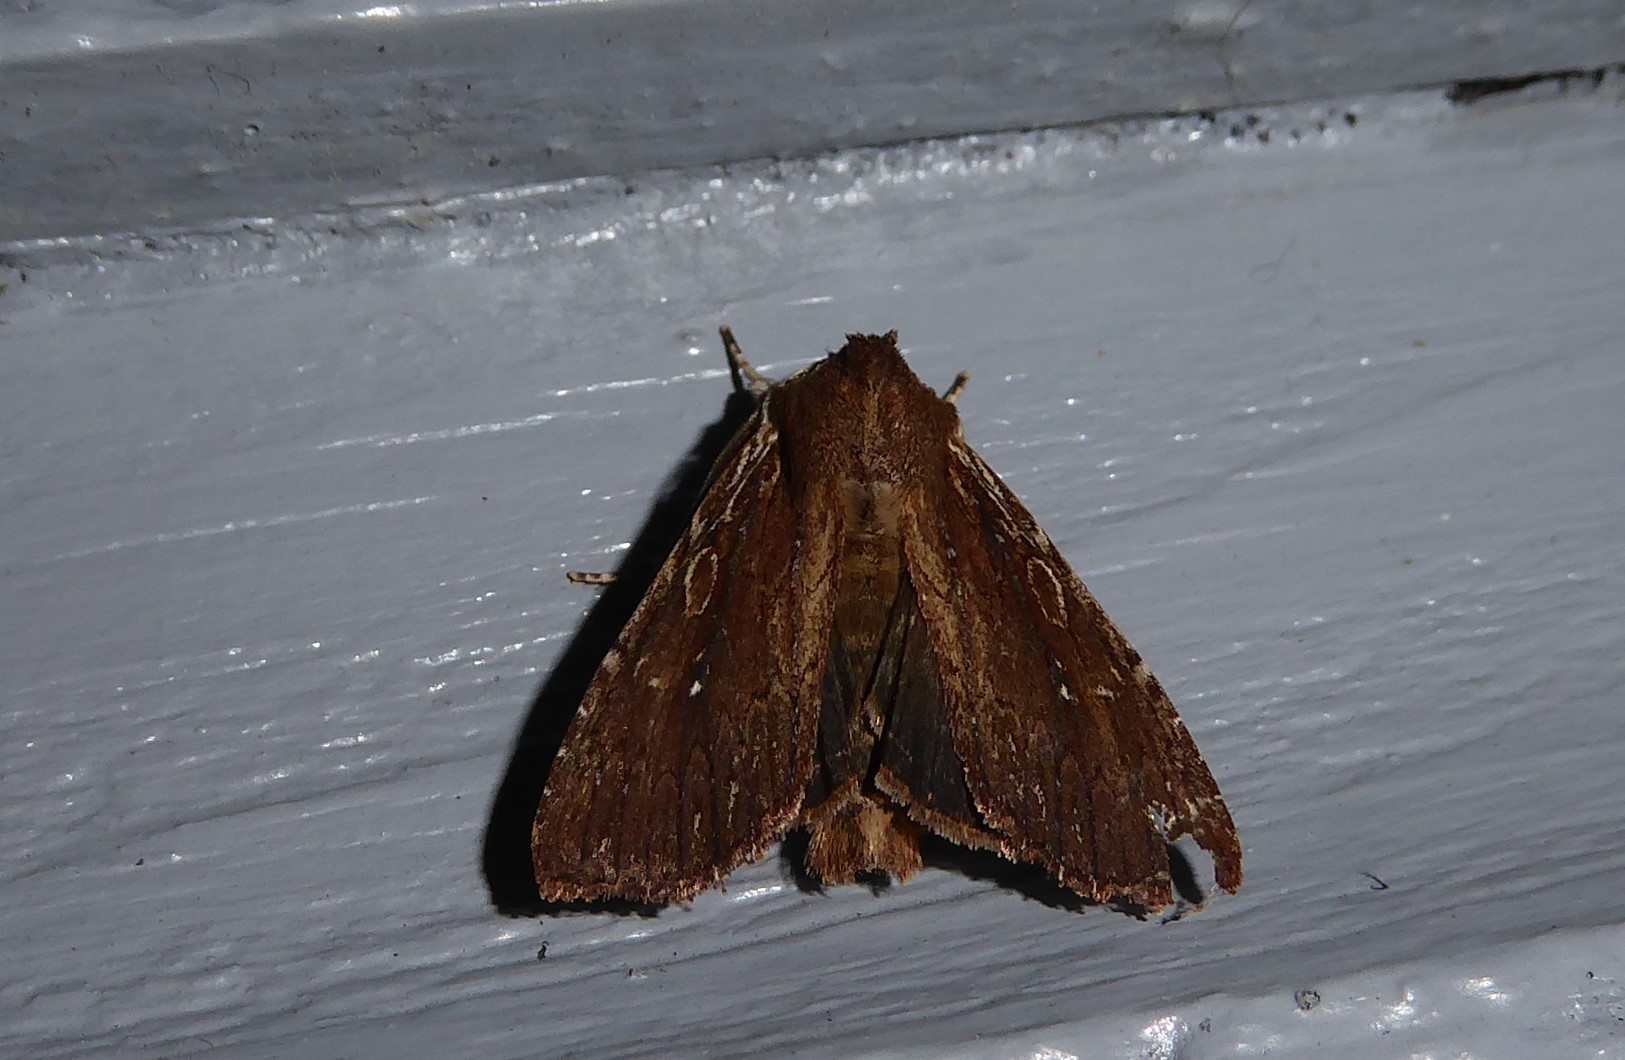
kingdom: Animalia
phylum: Arthropoda
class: Insecta
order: Lepidoptera
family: Noctuidae
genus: Ichneutica
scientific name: Ichneutica
